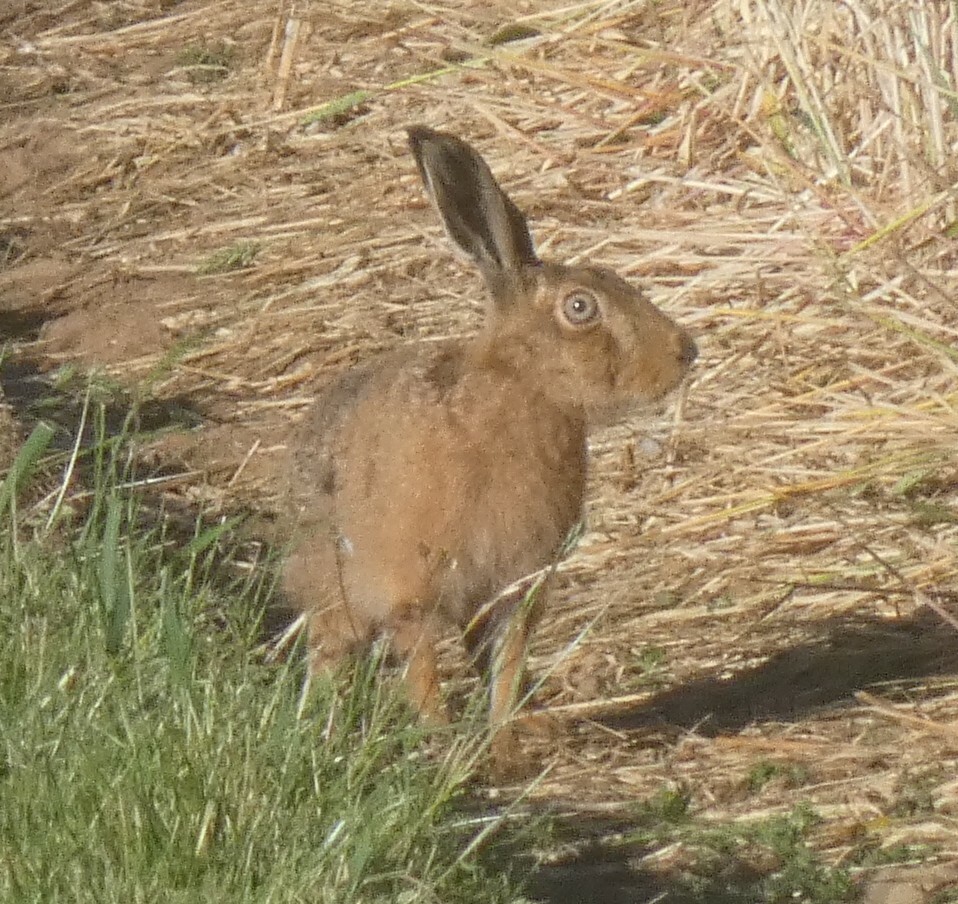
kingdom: Animalia
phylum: Chordata
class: Mammalia
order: Lagomorpha
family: Leporidae
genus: Lepus
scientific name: Lepus europaeus
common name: European hare
